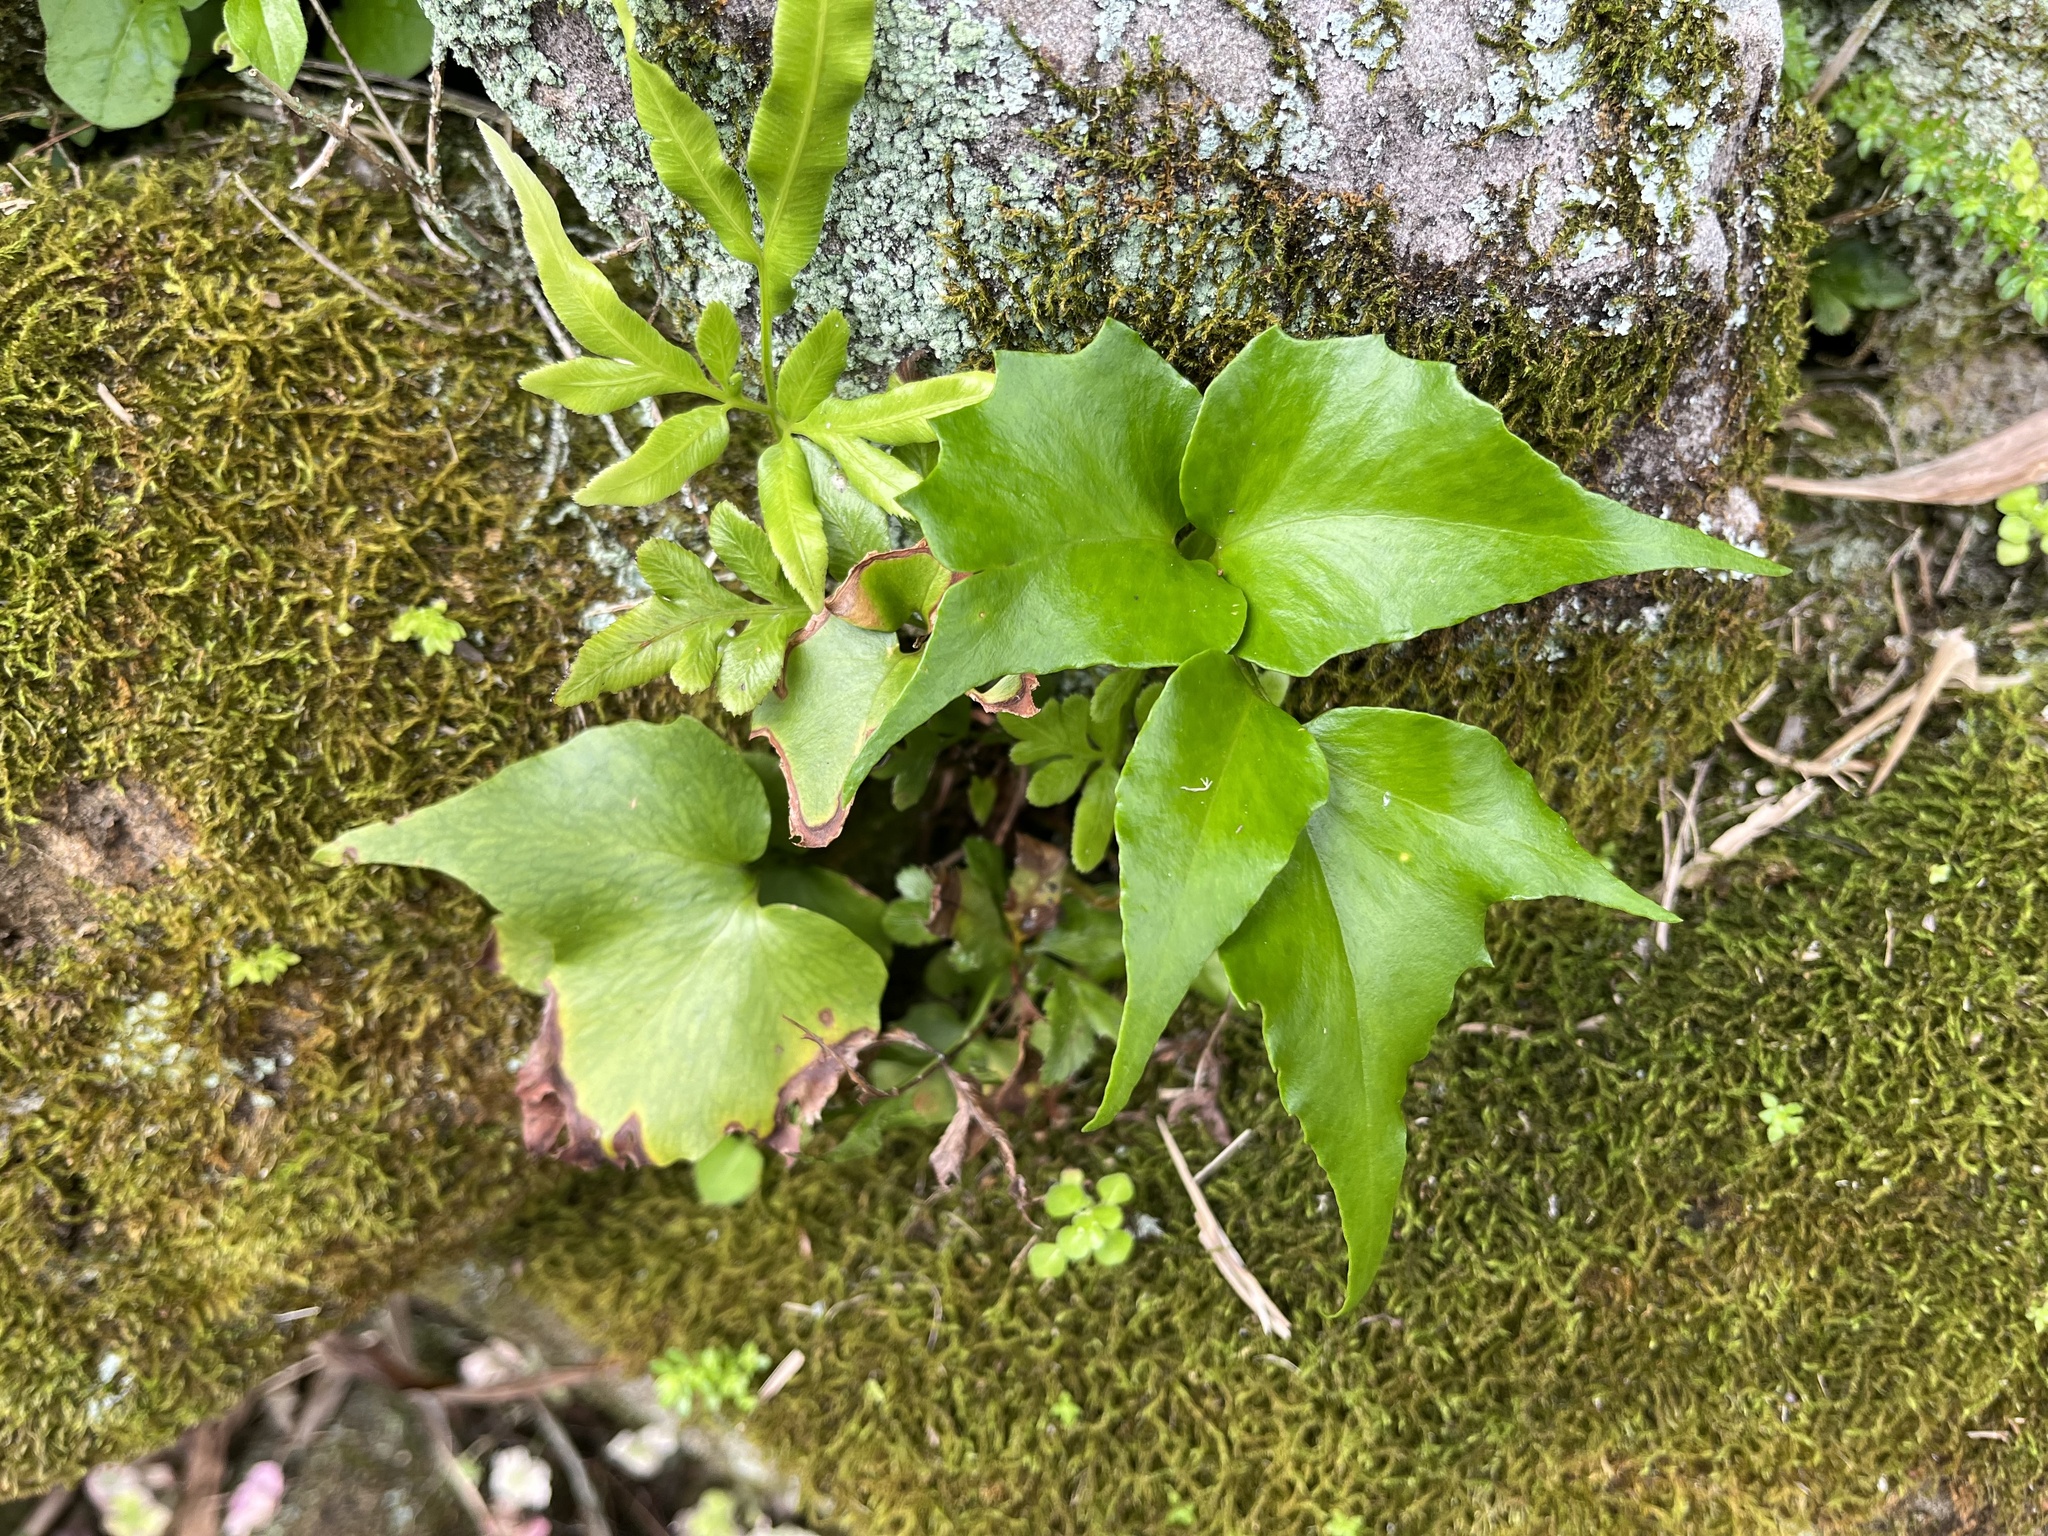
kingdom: Plantae
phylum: Tracheophyta
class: Polypodiopsida
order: Polypodiales
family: Dryopteridaceae
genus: Cyrtomium
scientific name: Cyrtomium falcatum
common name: House holly-fern
